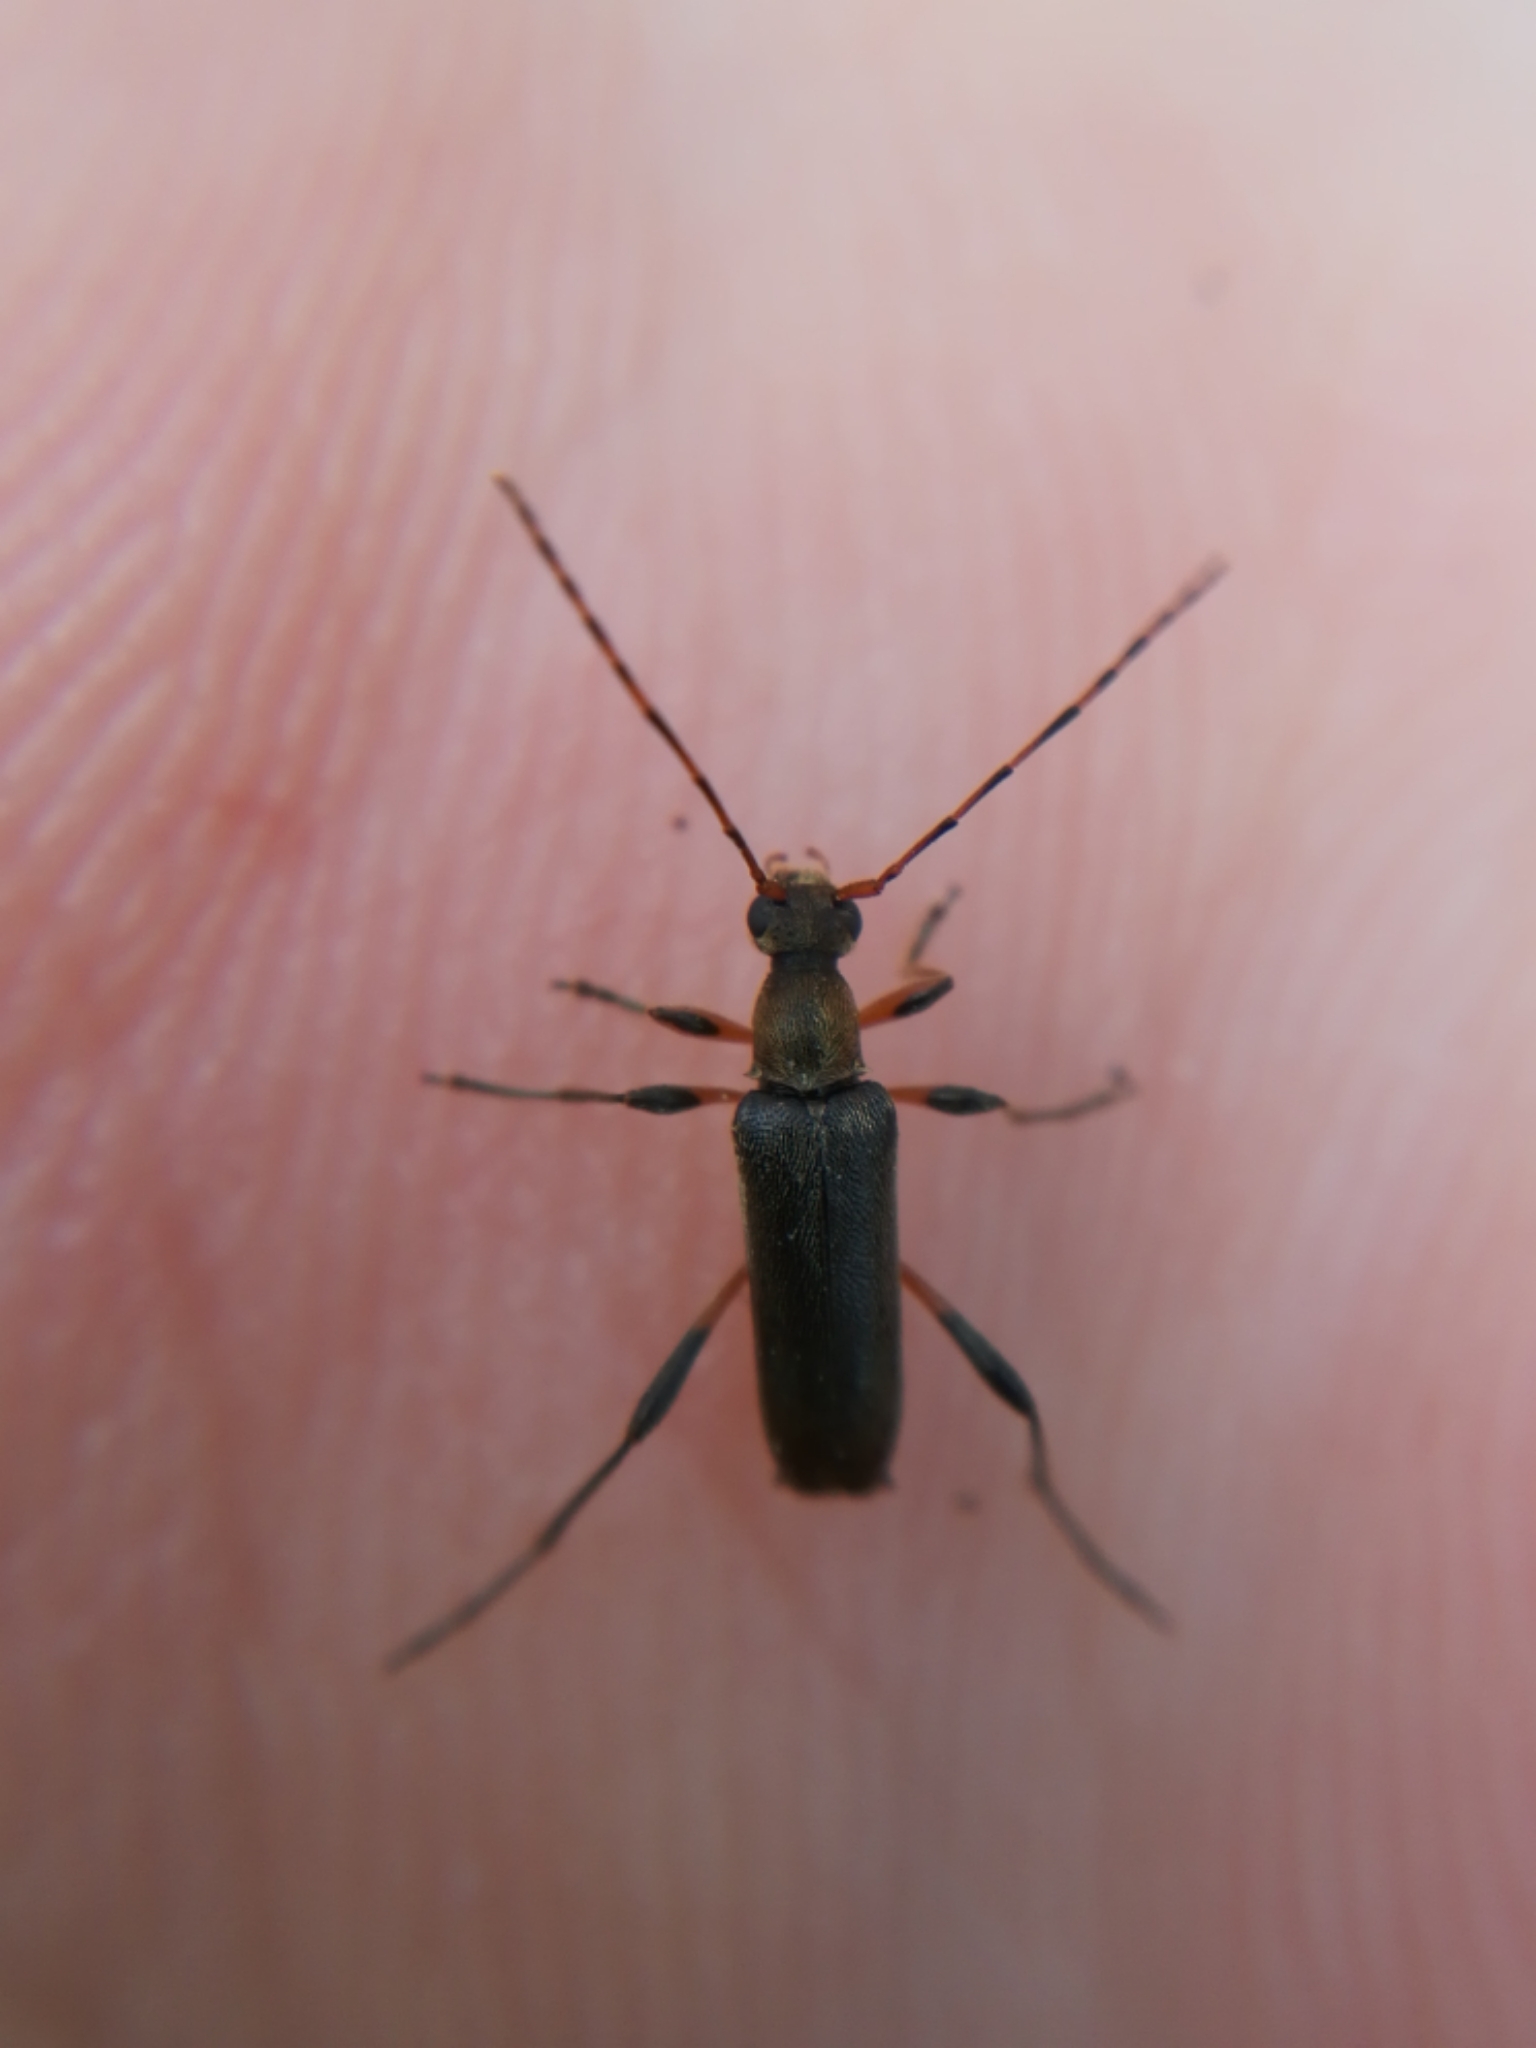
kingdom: Animalia
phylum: Arthropoda
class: Insecta
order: Coleoptera
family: Cerambycidae
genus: Grammoptera
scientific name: Grammoptera ruficornis
